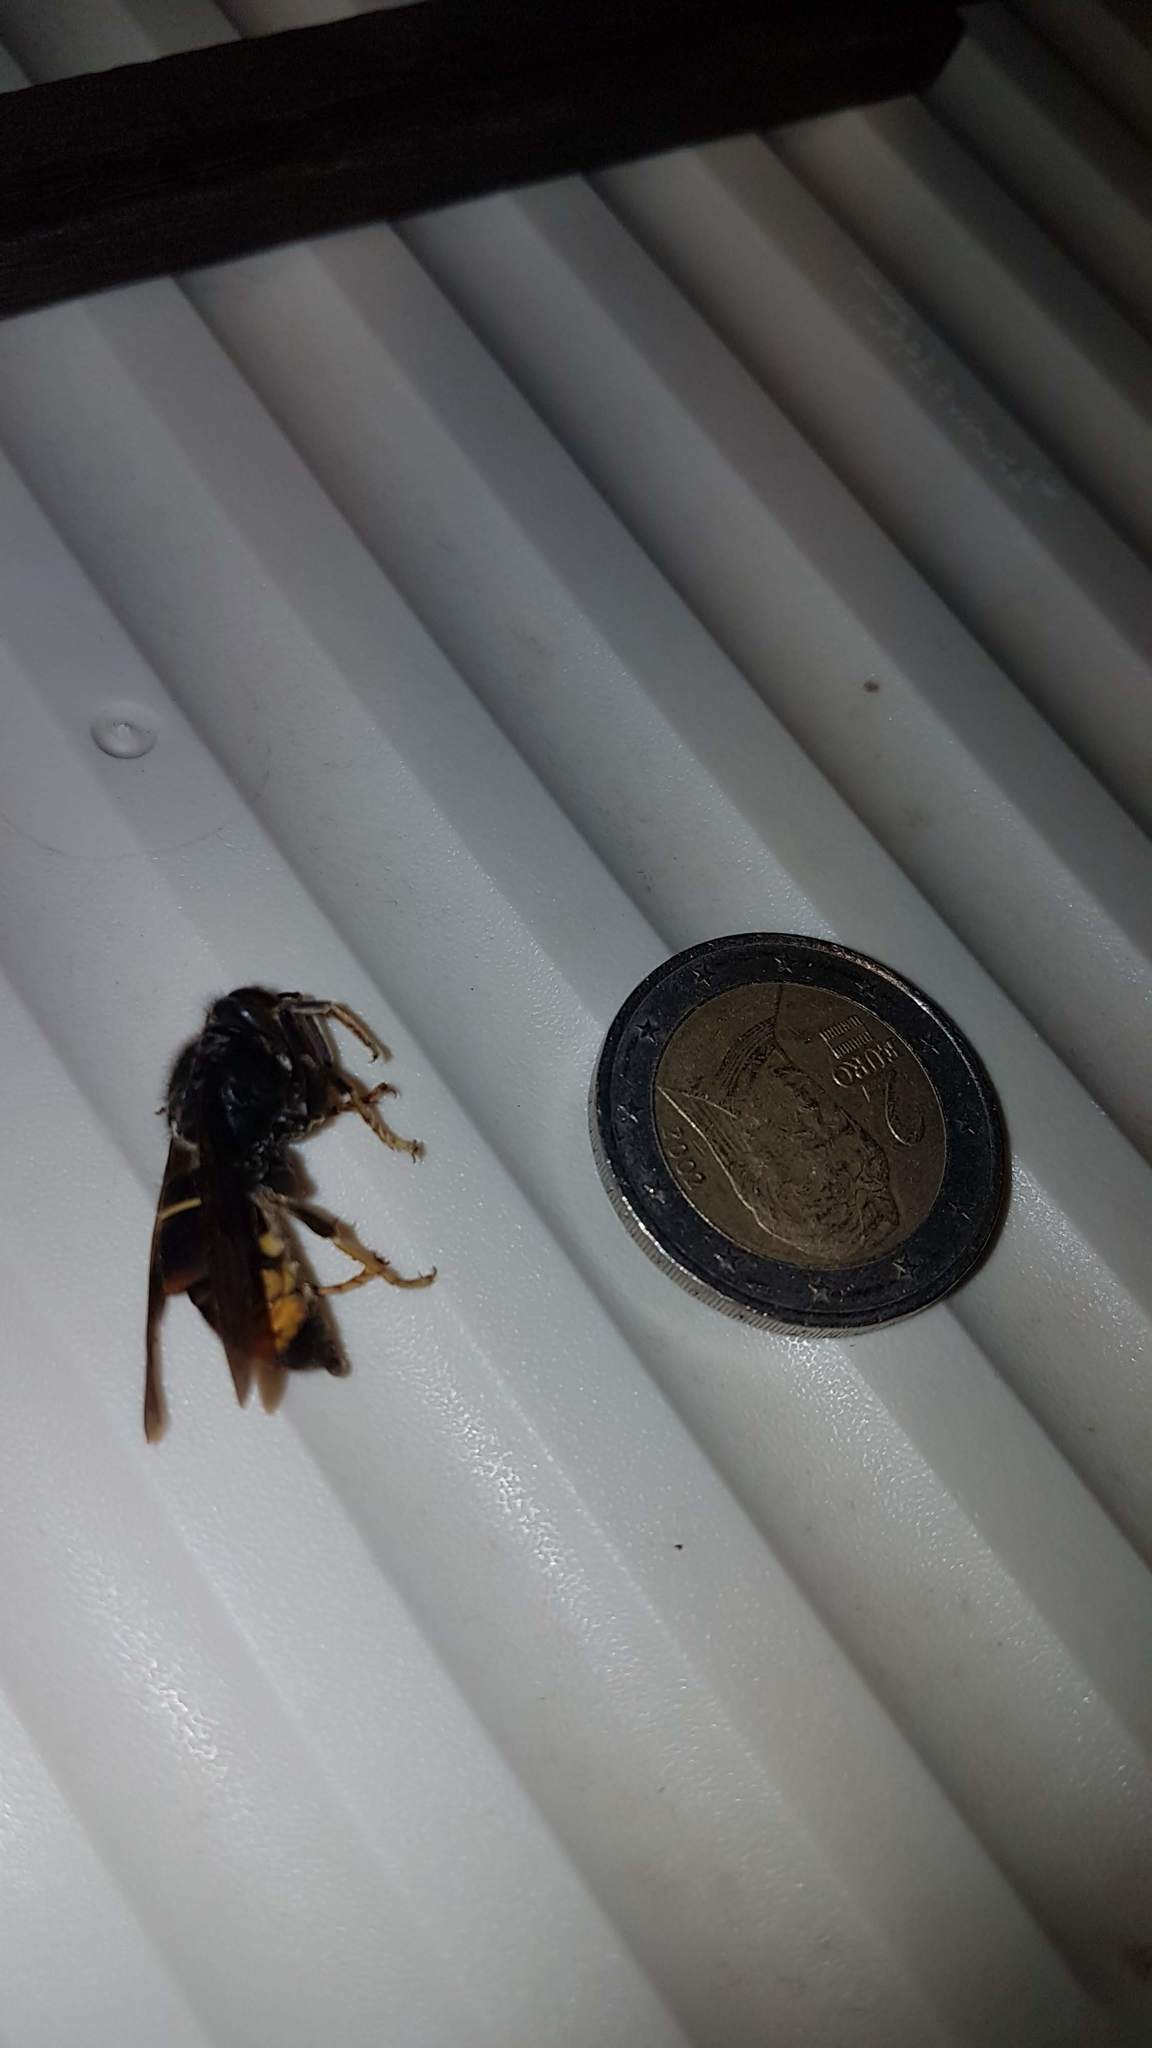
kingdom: Animalia
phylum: Arthropoda
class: Insecta
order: Hymenoptera
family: Vespidae
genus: Vespa
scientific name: Vespa velutina
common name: Asian hornet
